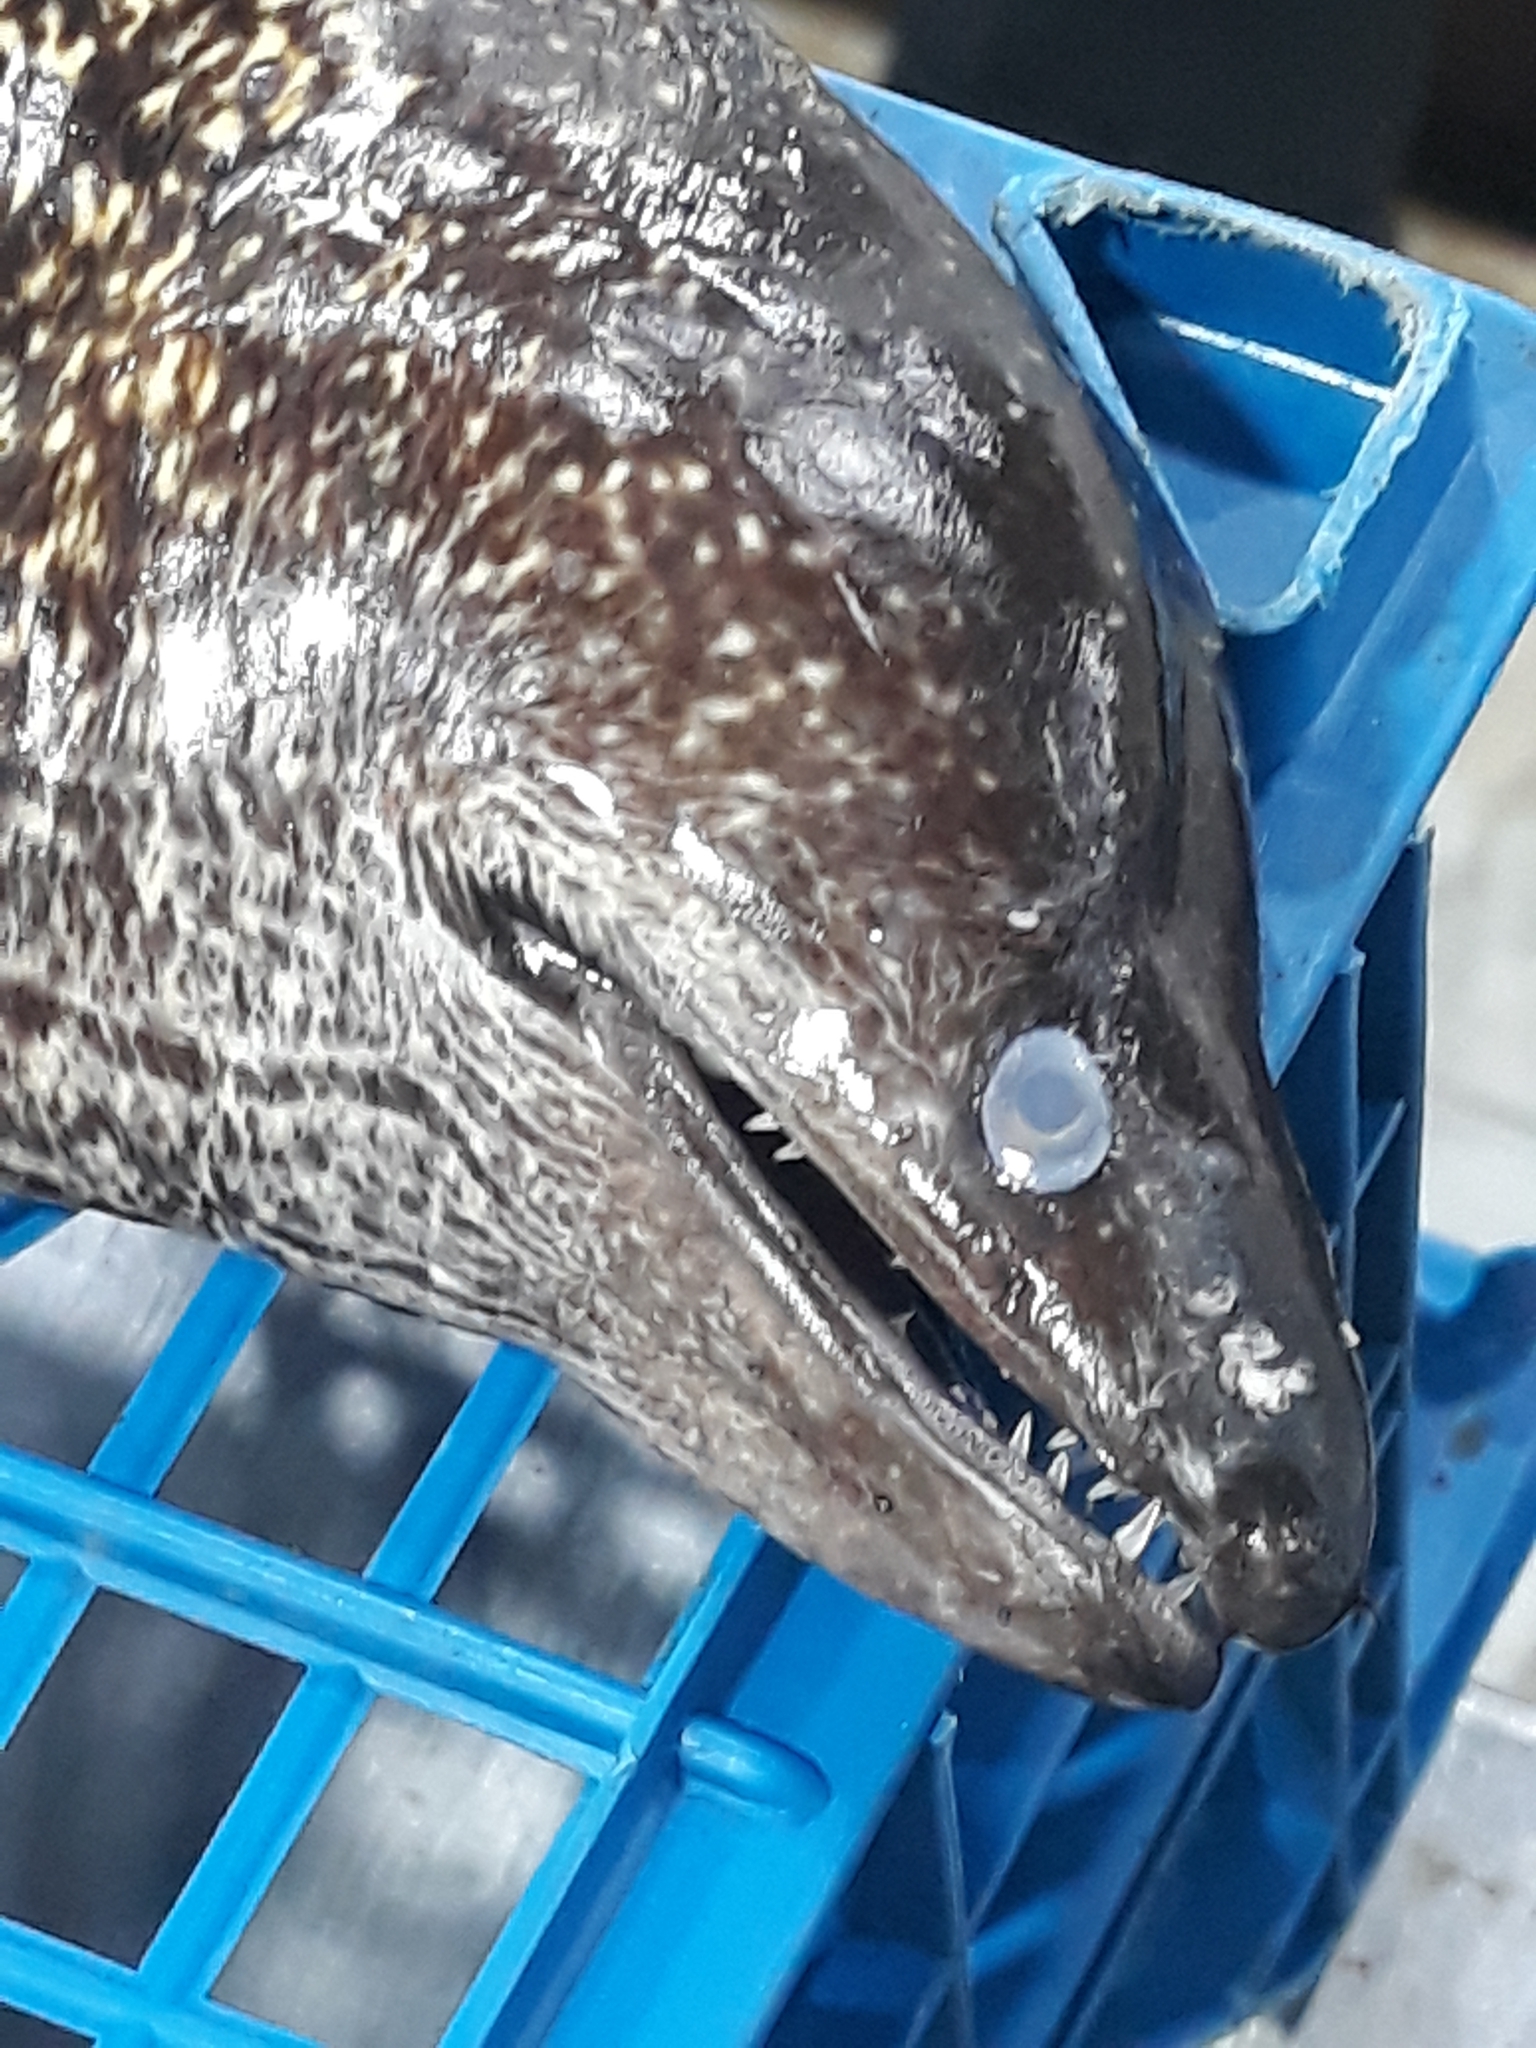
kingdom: Animalia
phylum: Chordata
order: Anguilliformes
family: Muraenidae
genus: Muraena
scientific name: Muraena helena
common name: Mediterranean moray
